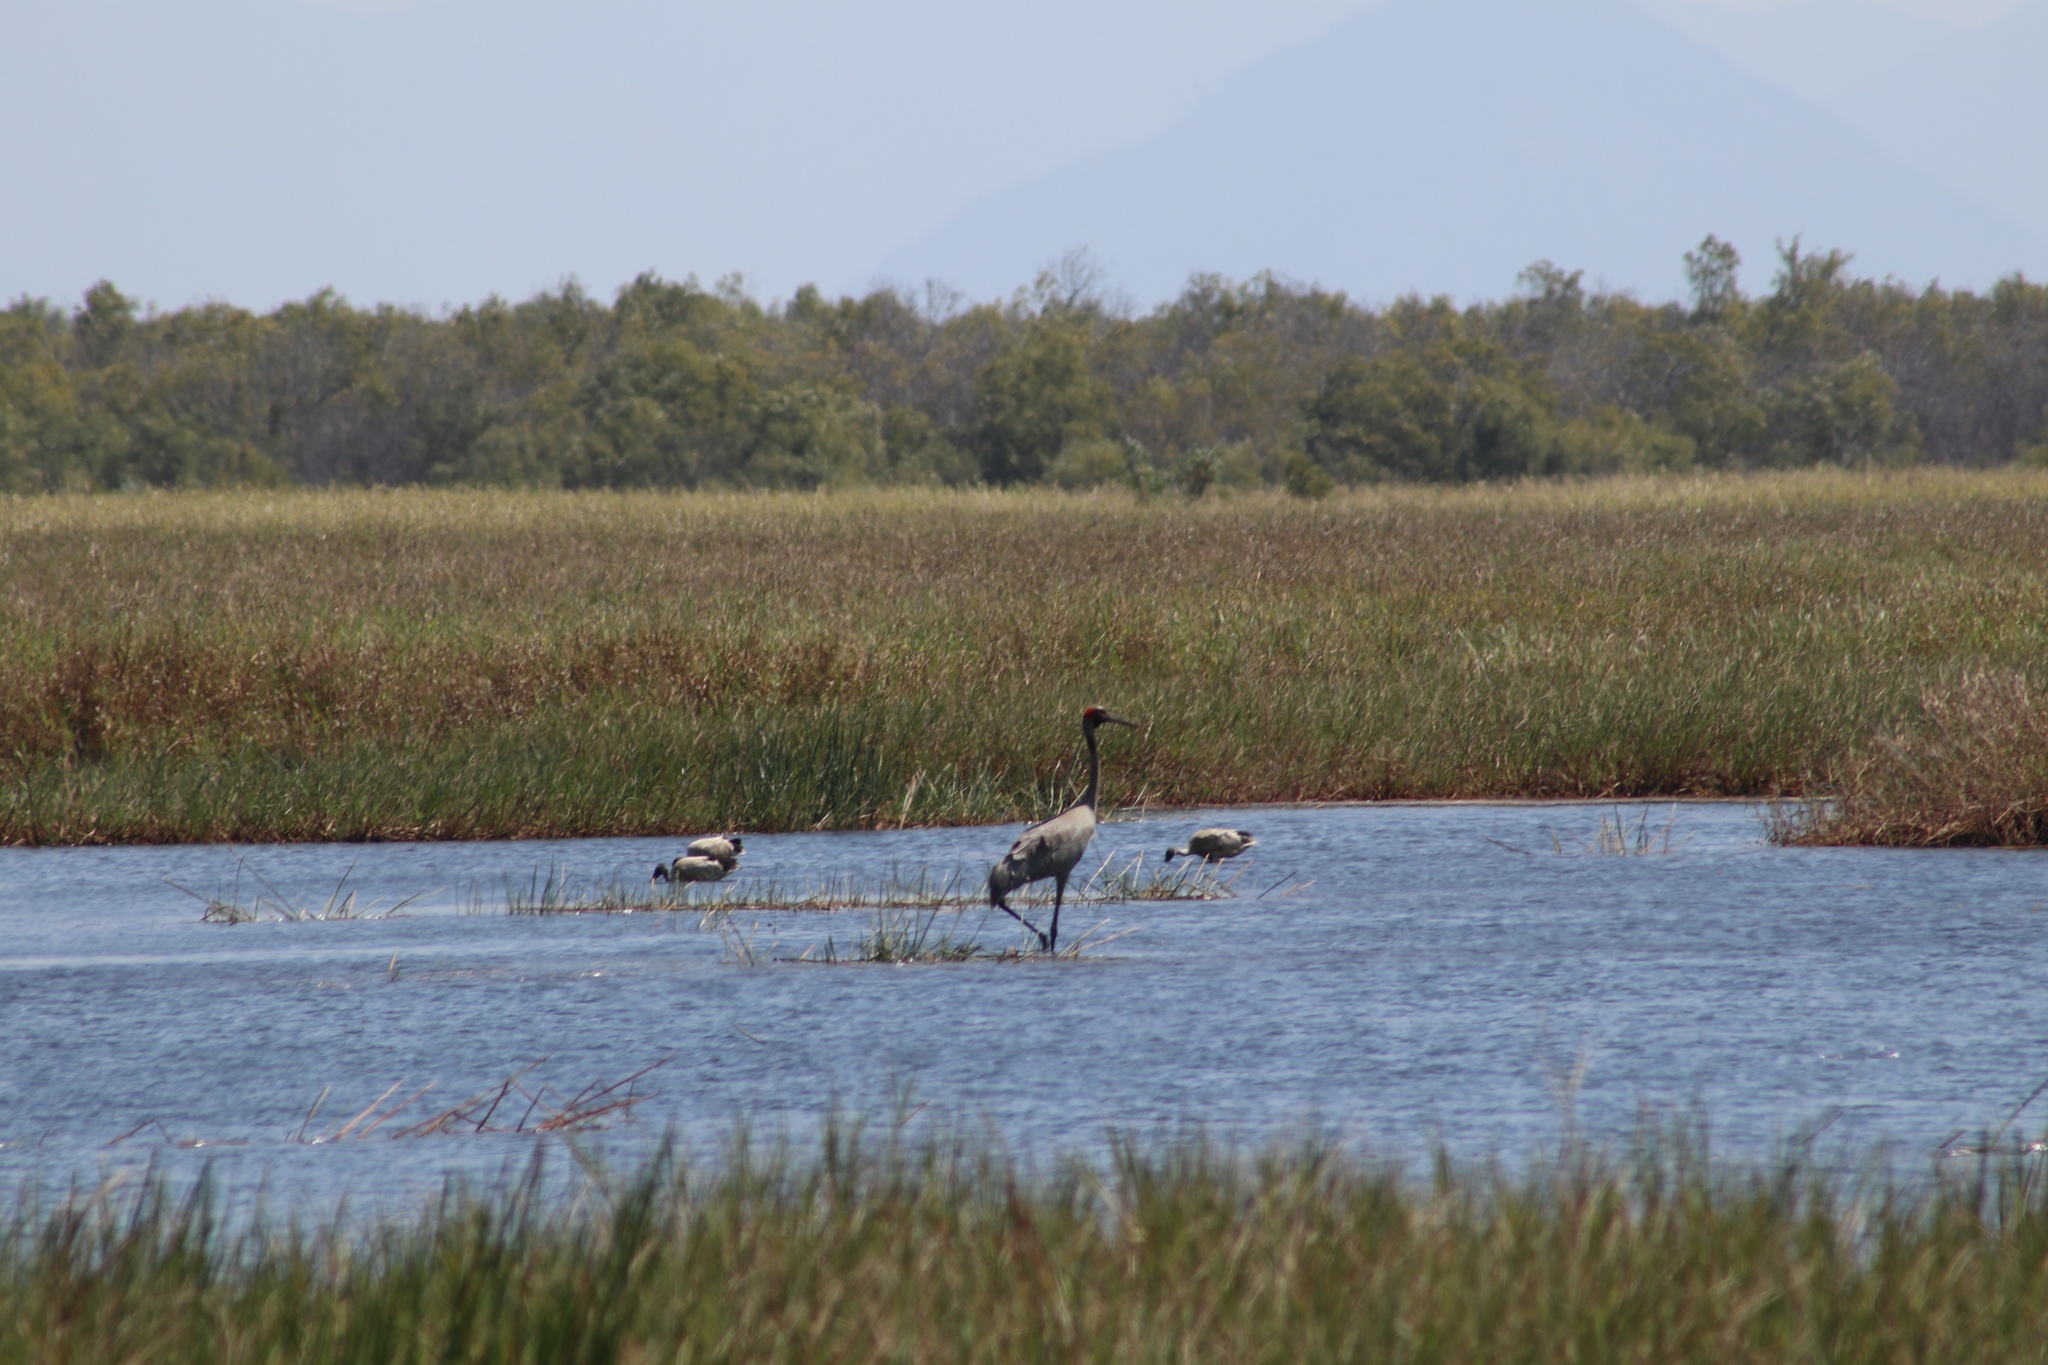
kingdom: Animalia
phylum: Chordata
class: Aves
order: Gruiformes
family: Gruidae
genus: Grus
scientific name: Grus rubicunda
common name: Brolga
